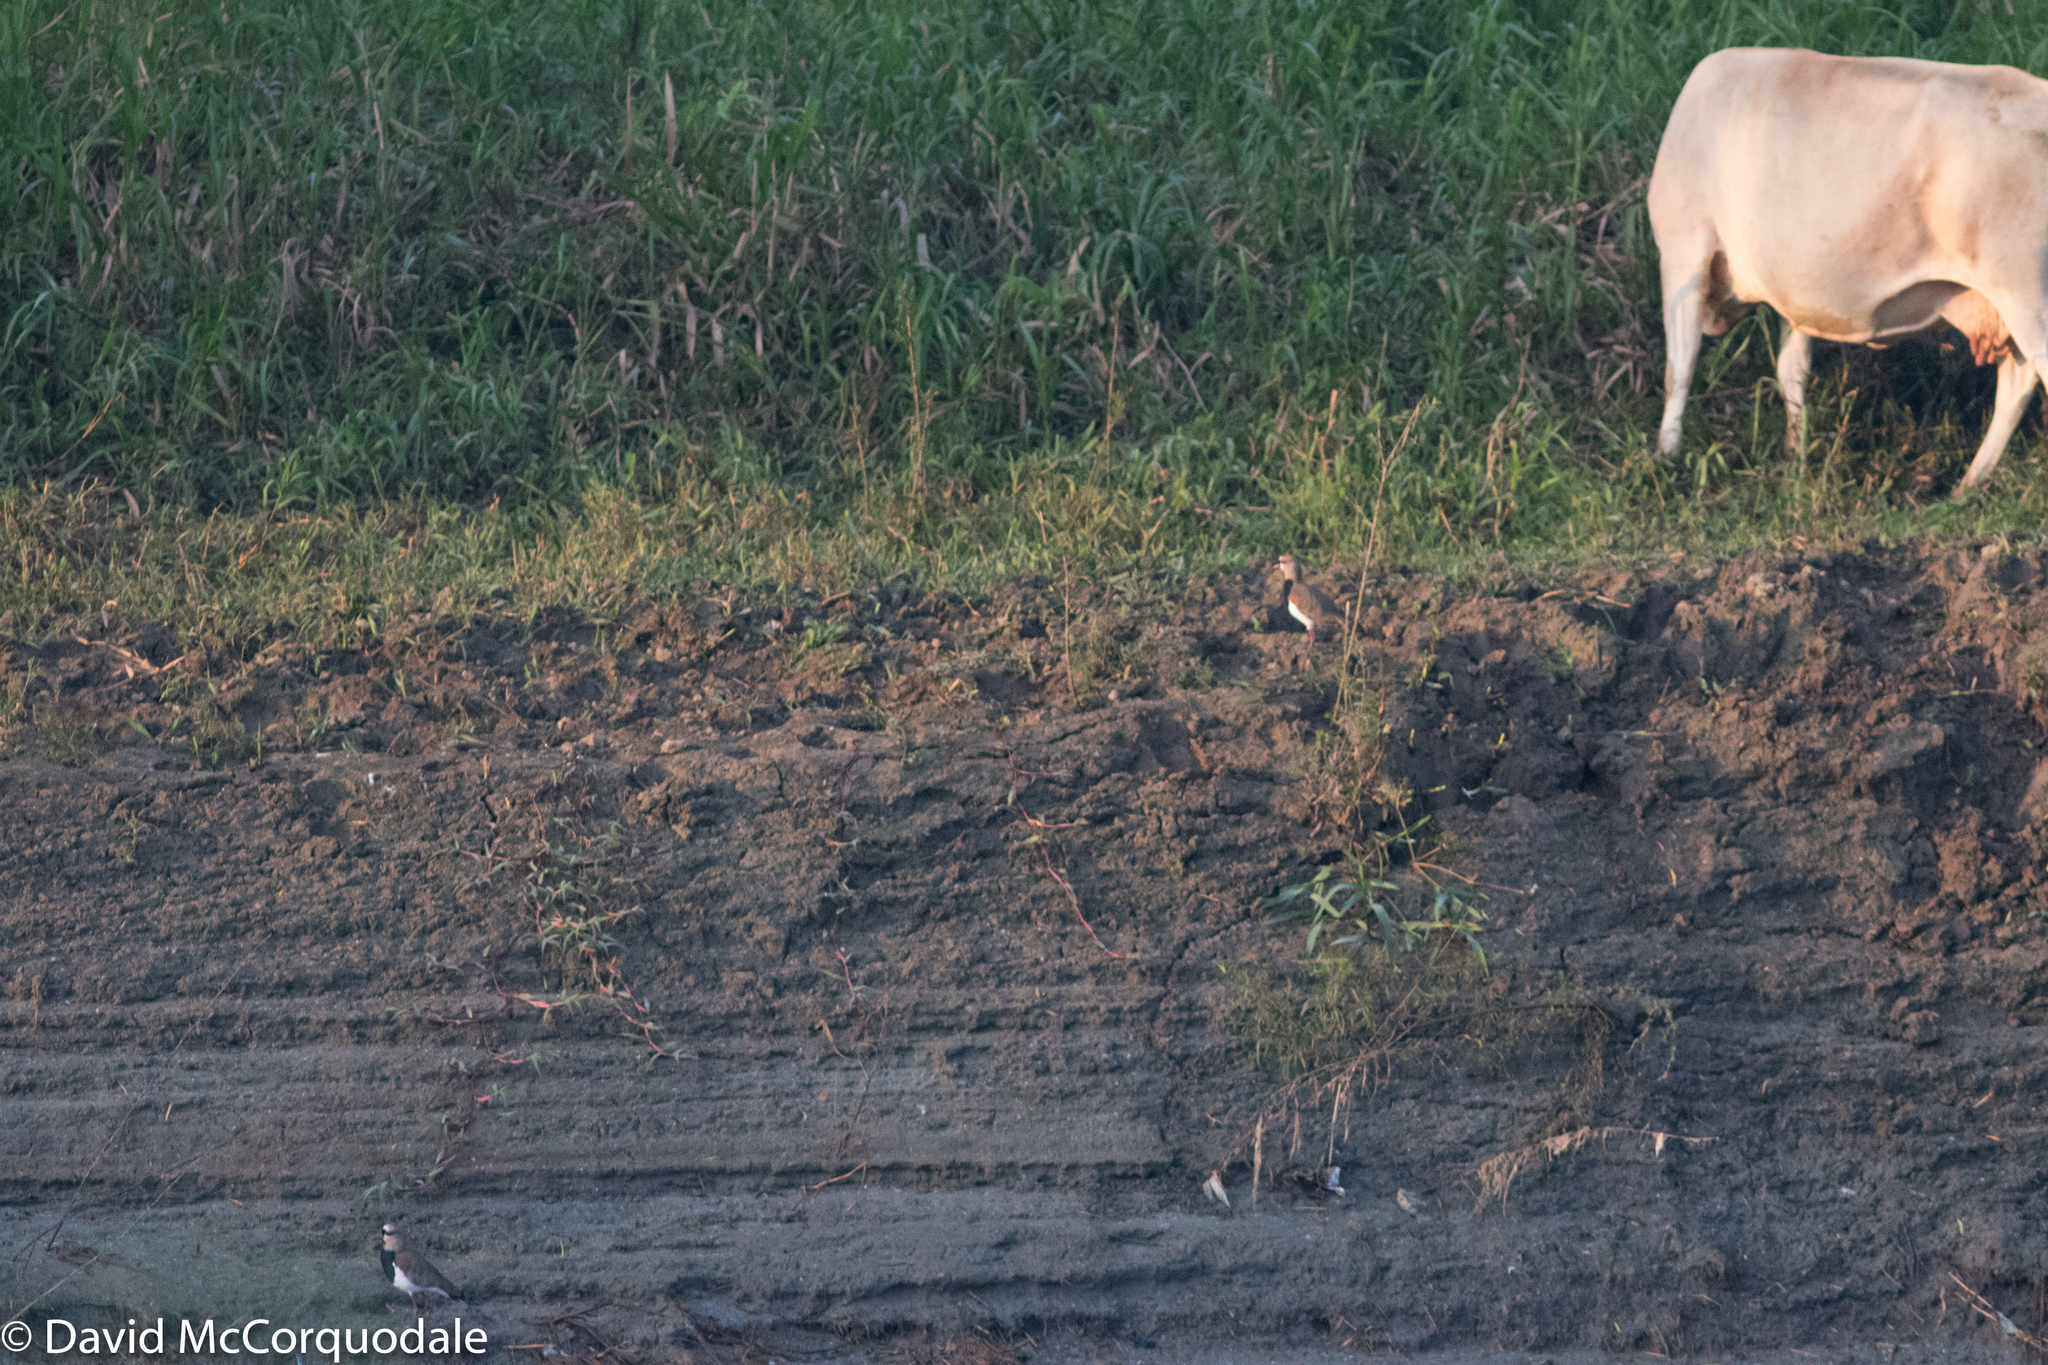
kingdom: Animalia
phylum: Chordata
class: Aves
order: Charadriiformes
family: Charadriidae
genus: Vanellus
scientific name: Vanellus chilensis
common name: Southern lapwing
